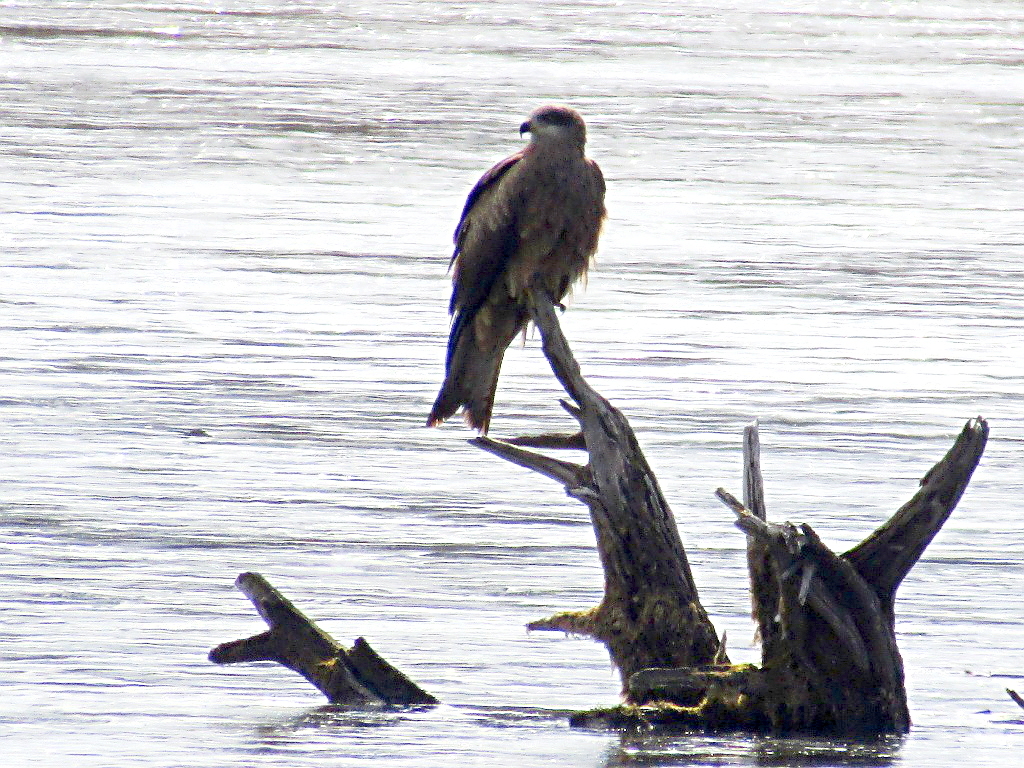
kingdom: Animalia
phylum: Chordata
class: Aves
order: Accipitriformes
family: Accipitridae
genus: Milvus
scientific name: Milvus migrans
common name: Black kite
